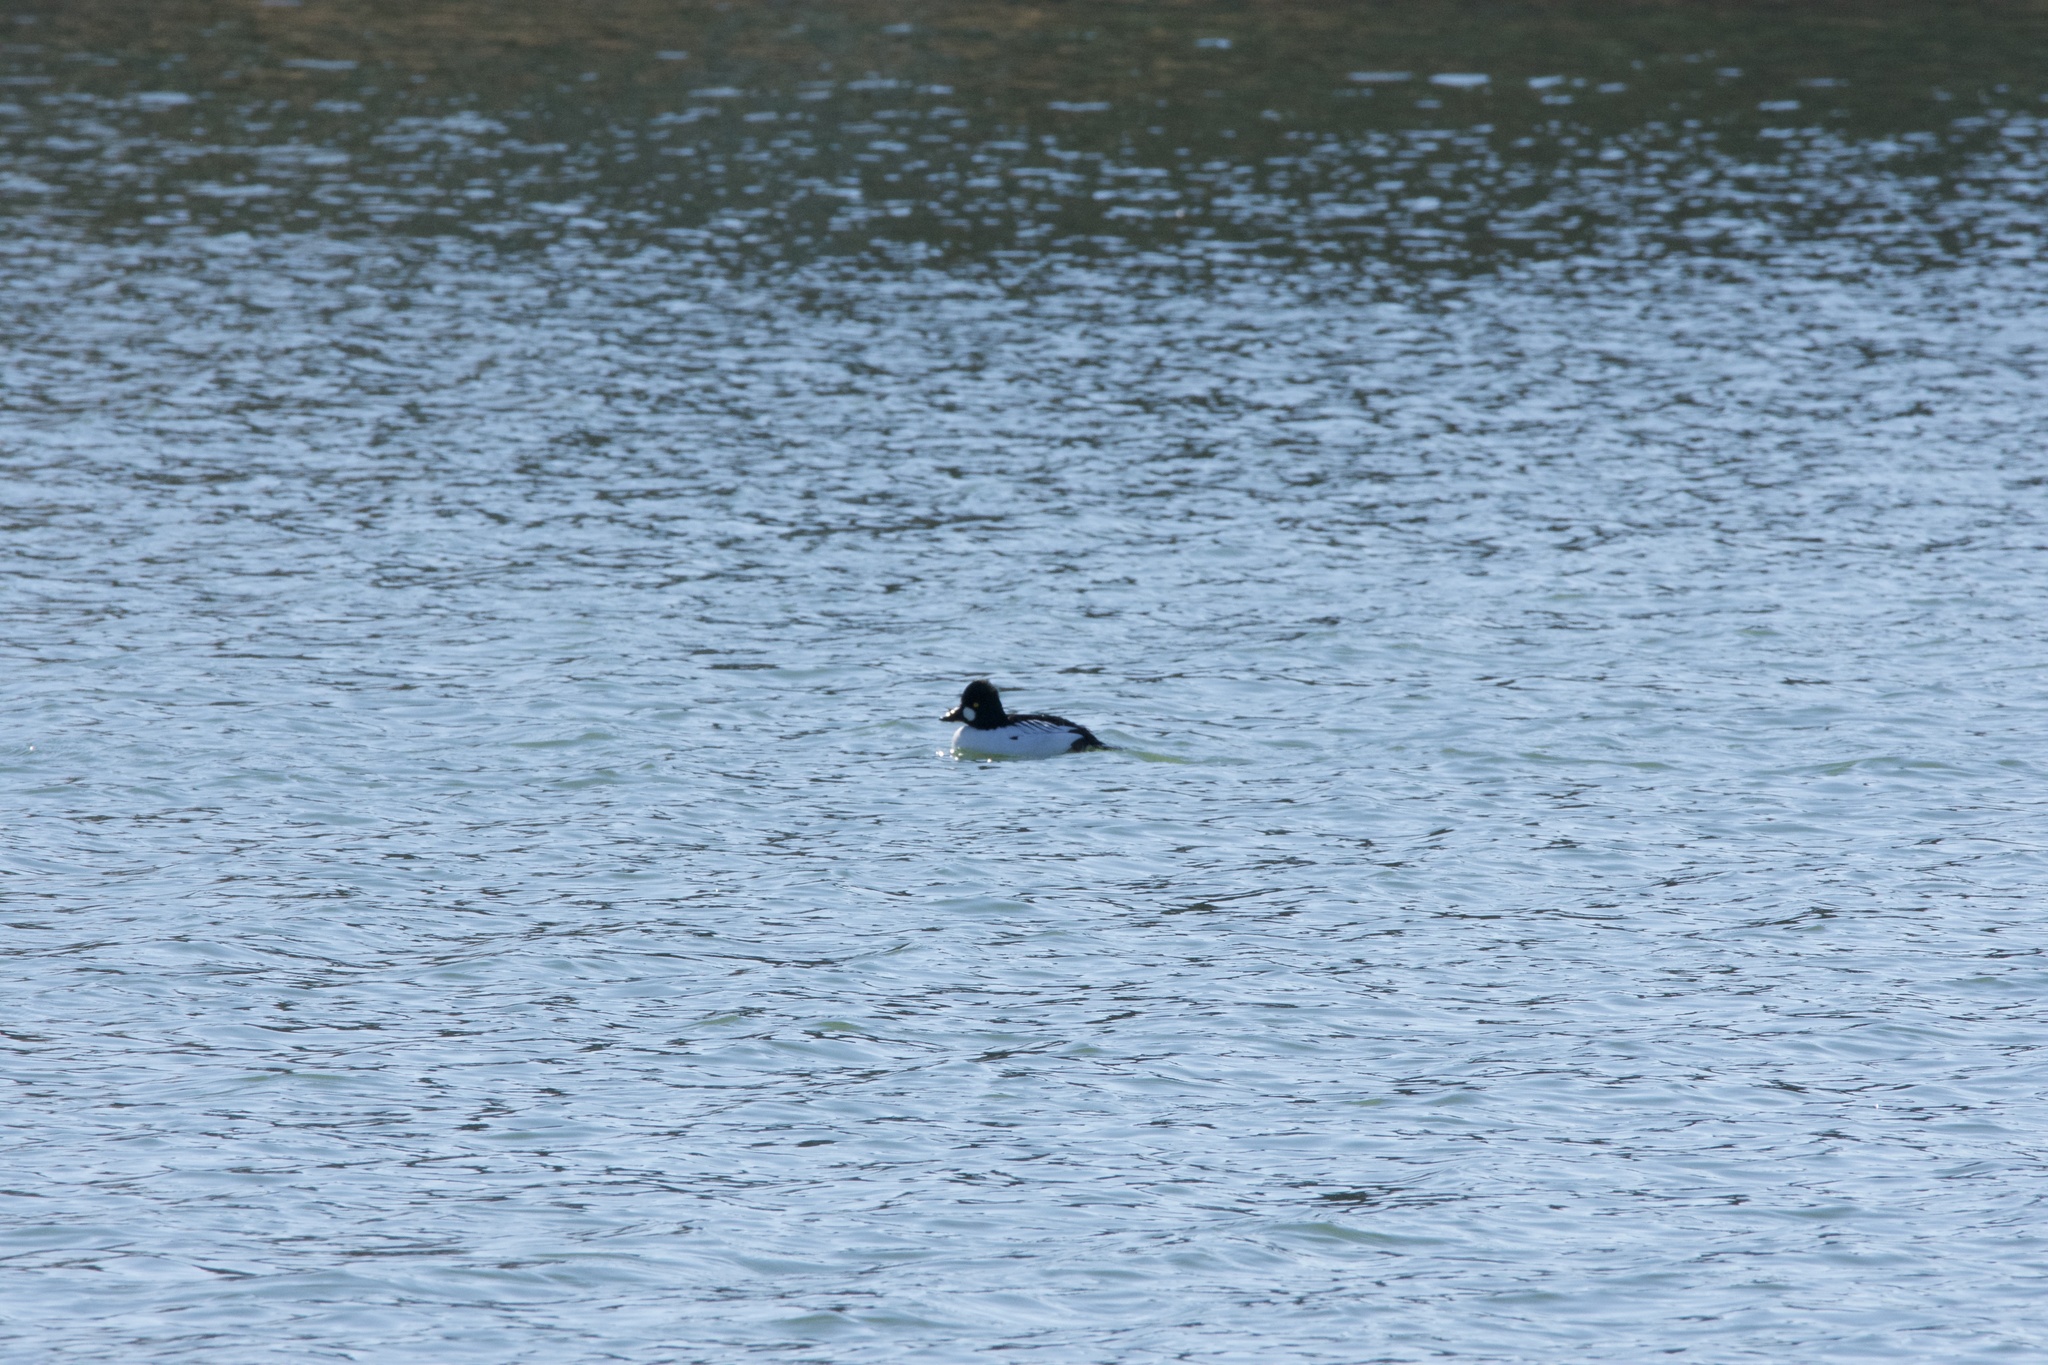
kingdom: Animalia
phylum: Chordata
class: Aves
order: Anseriformes
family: Anatidae
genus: Bucephala
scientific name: Bucephala clangula
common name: Common goldeneye
